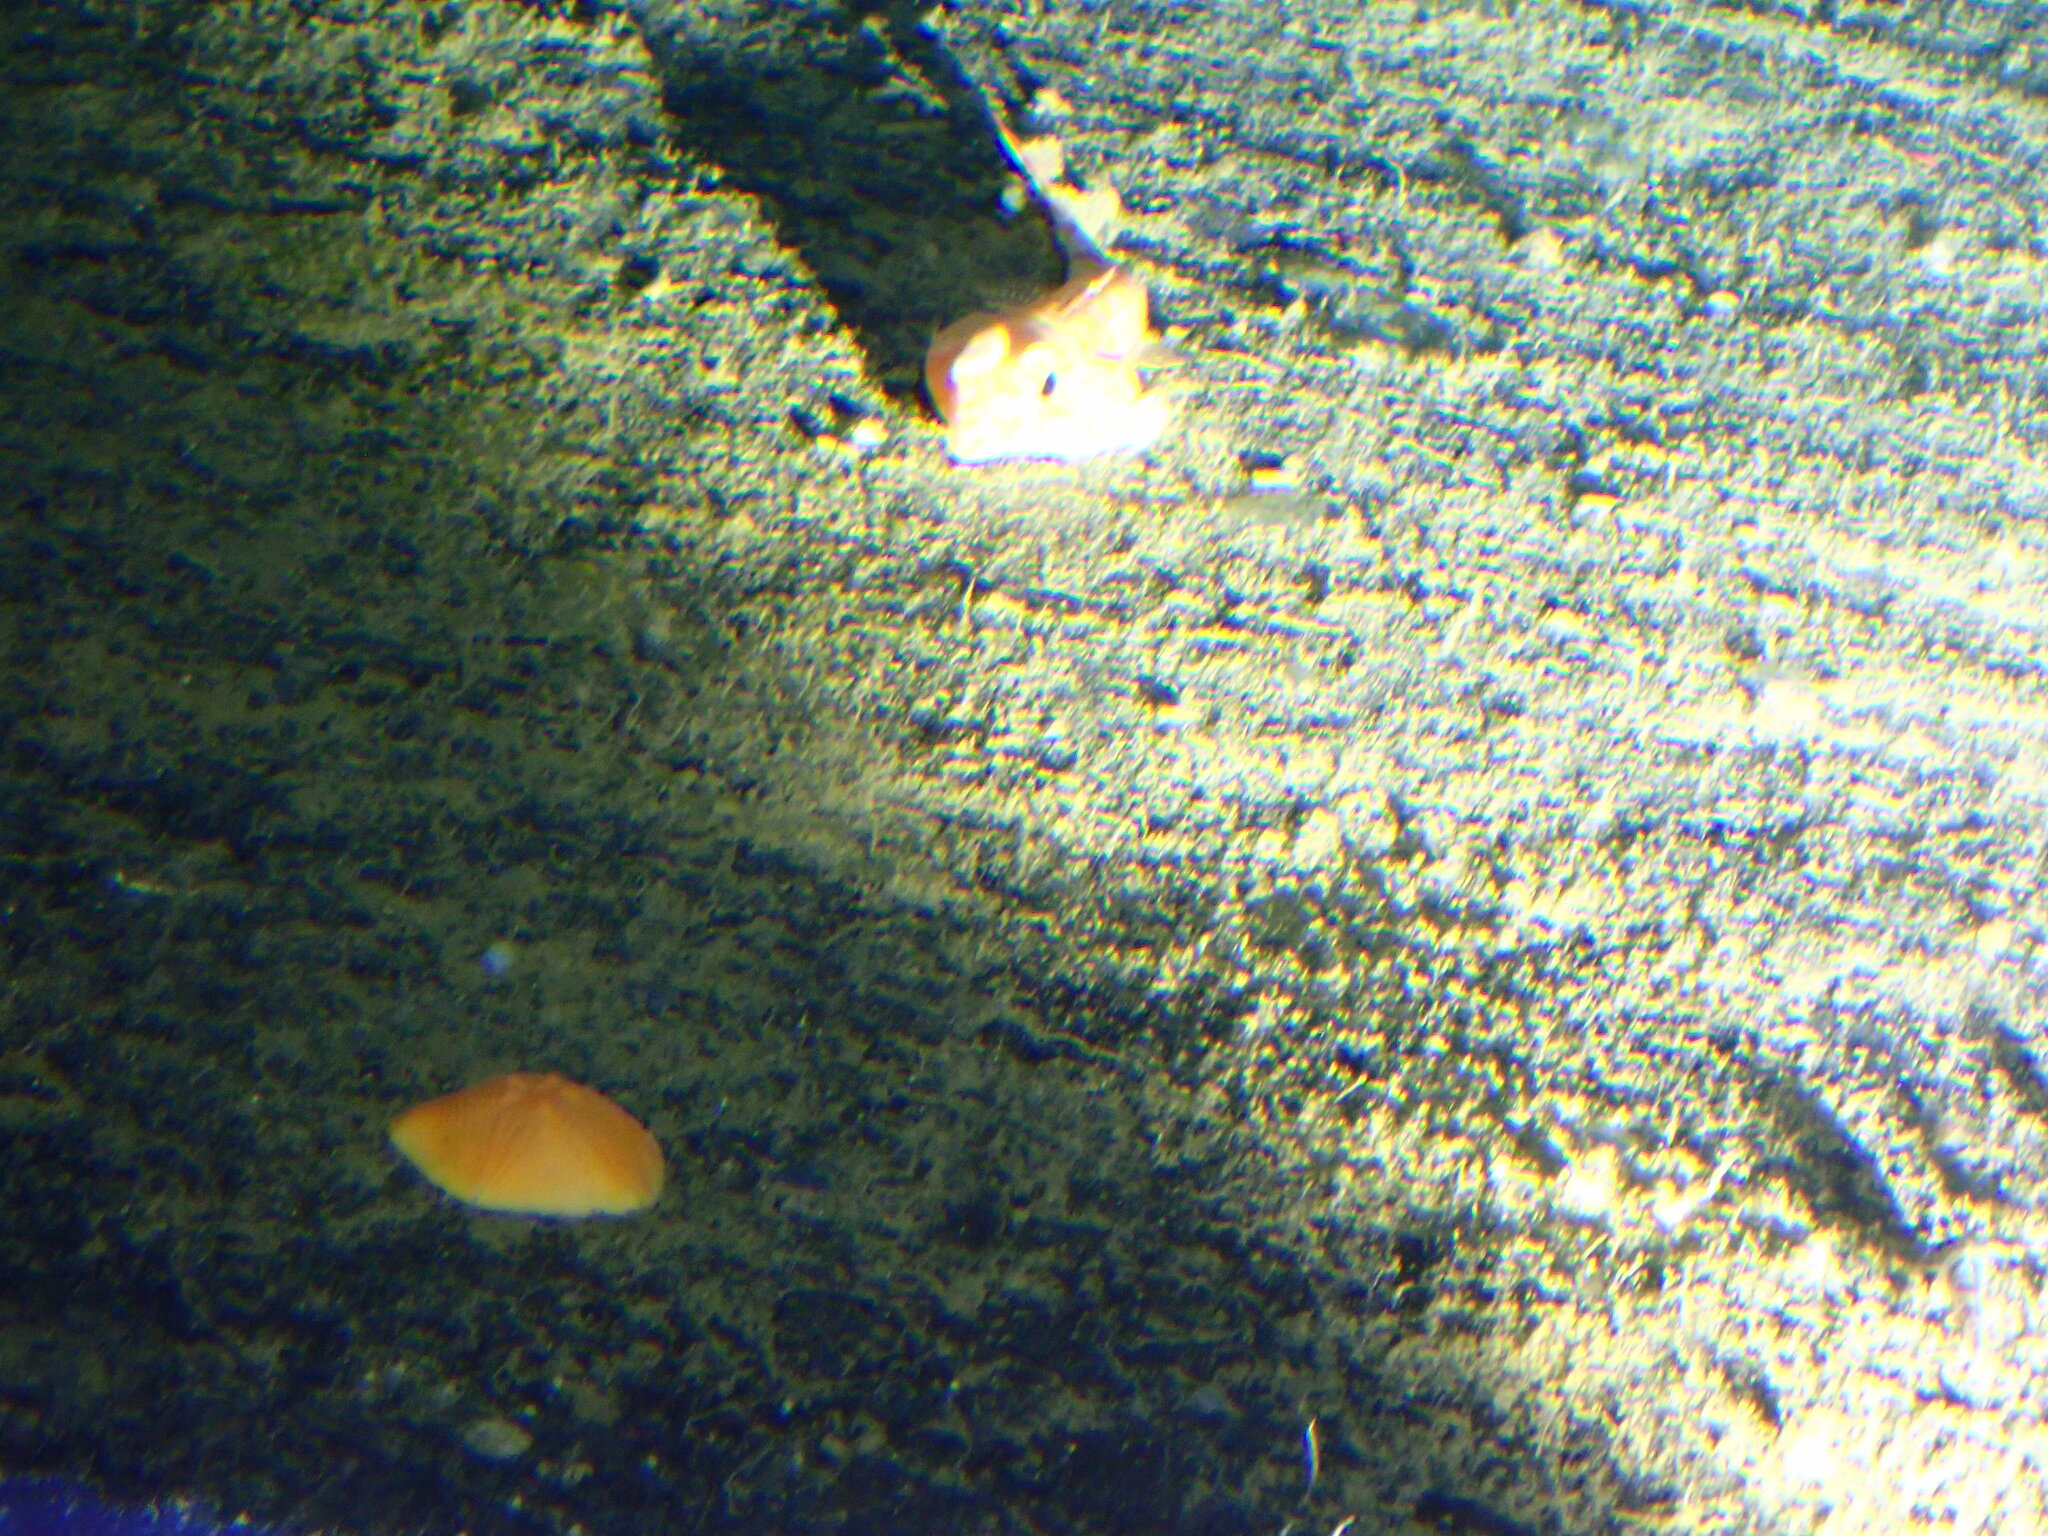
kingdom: Animalia
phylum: Echinodermata
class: Asteroidea
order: Valvatida
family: Asterinidae
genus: Tremaster
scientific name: Tremaster mirabilis
